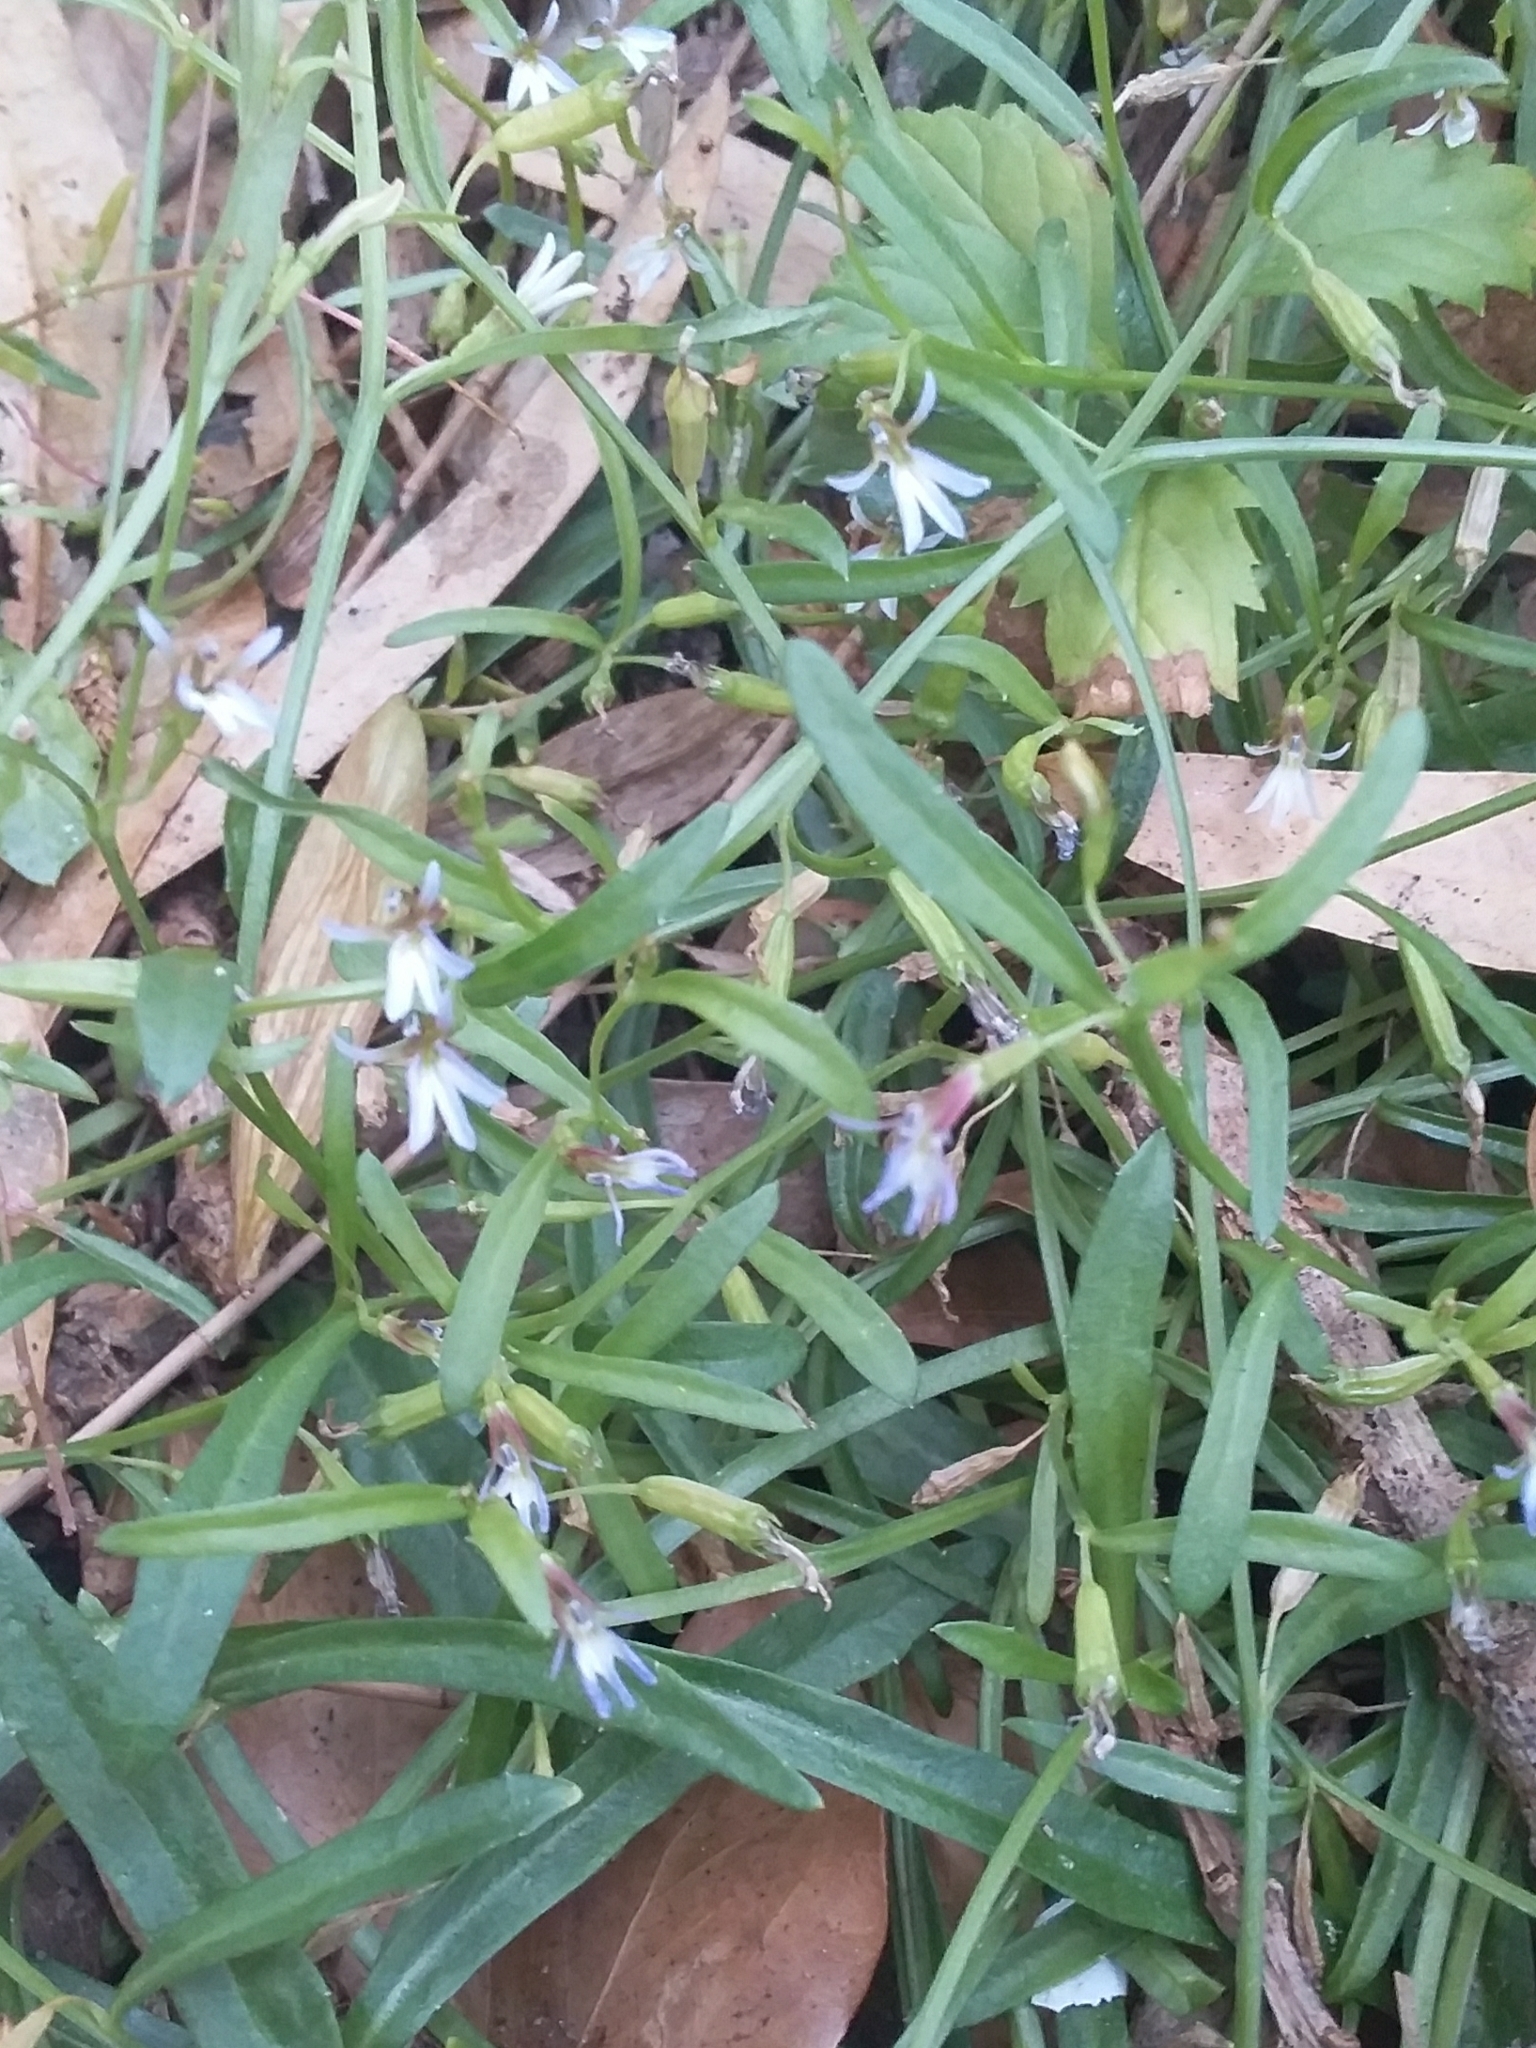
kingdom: Plantae
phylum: Tracheophyta
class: Magnoliopsida
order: Asterales
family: Campanulaceae
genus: Lobelia
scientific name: Lobelia anceps
